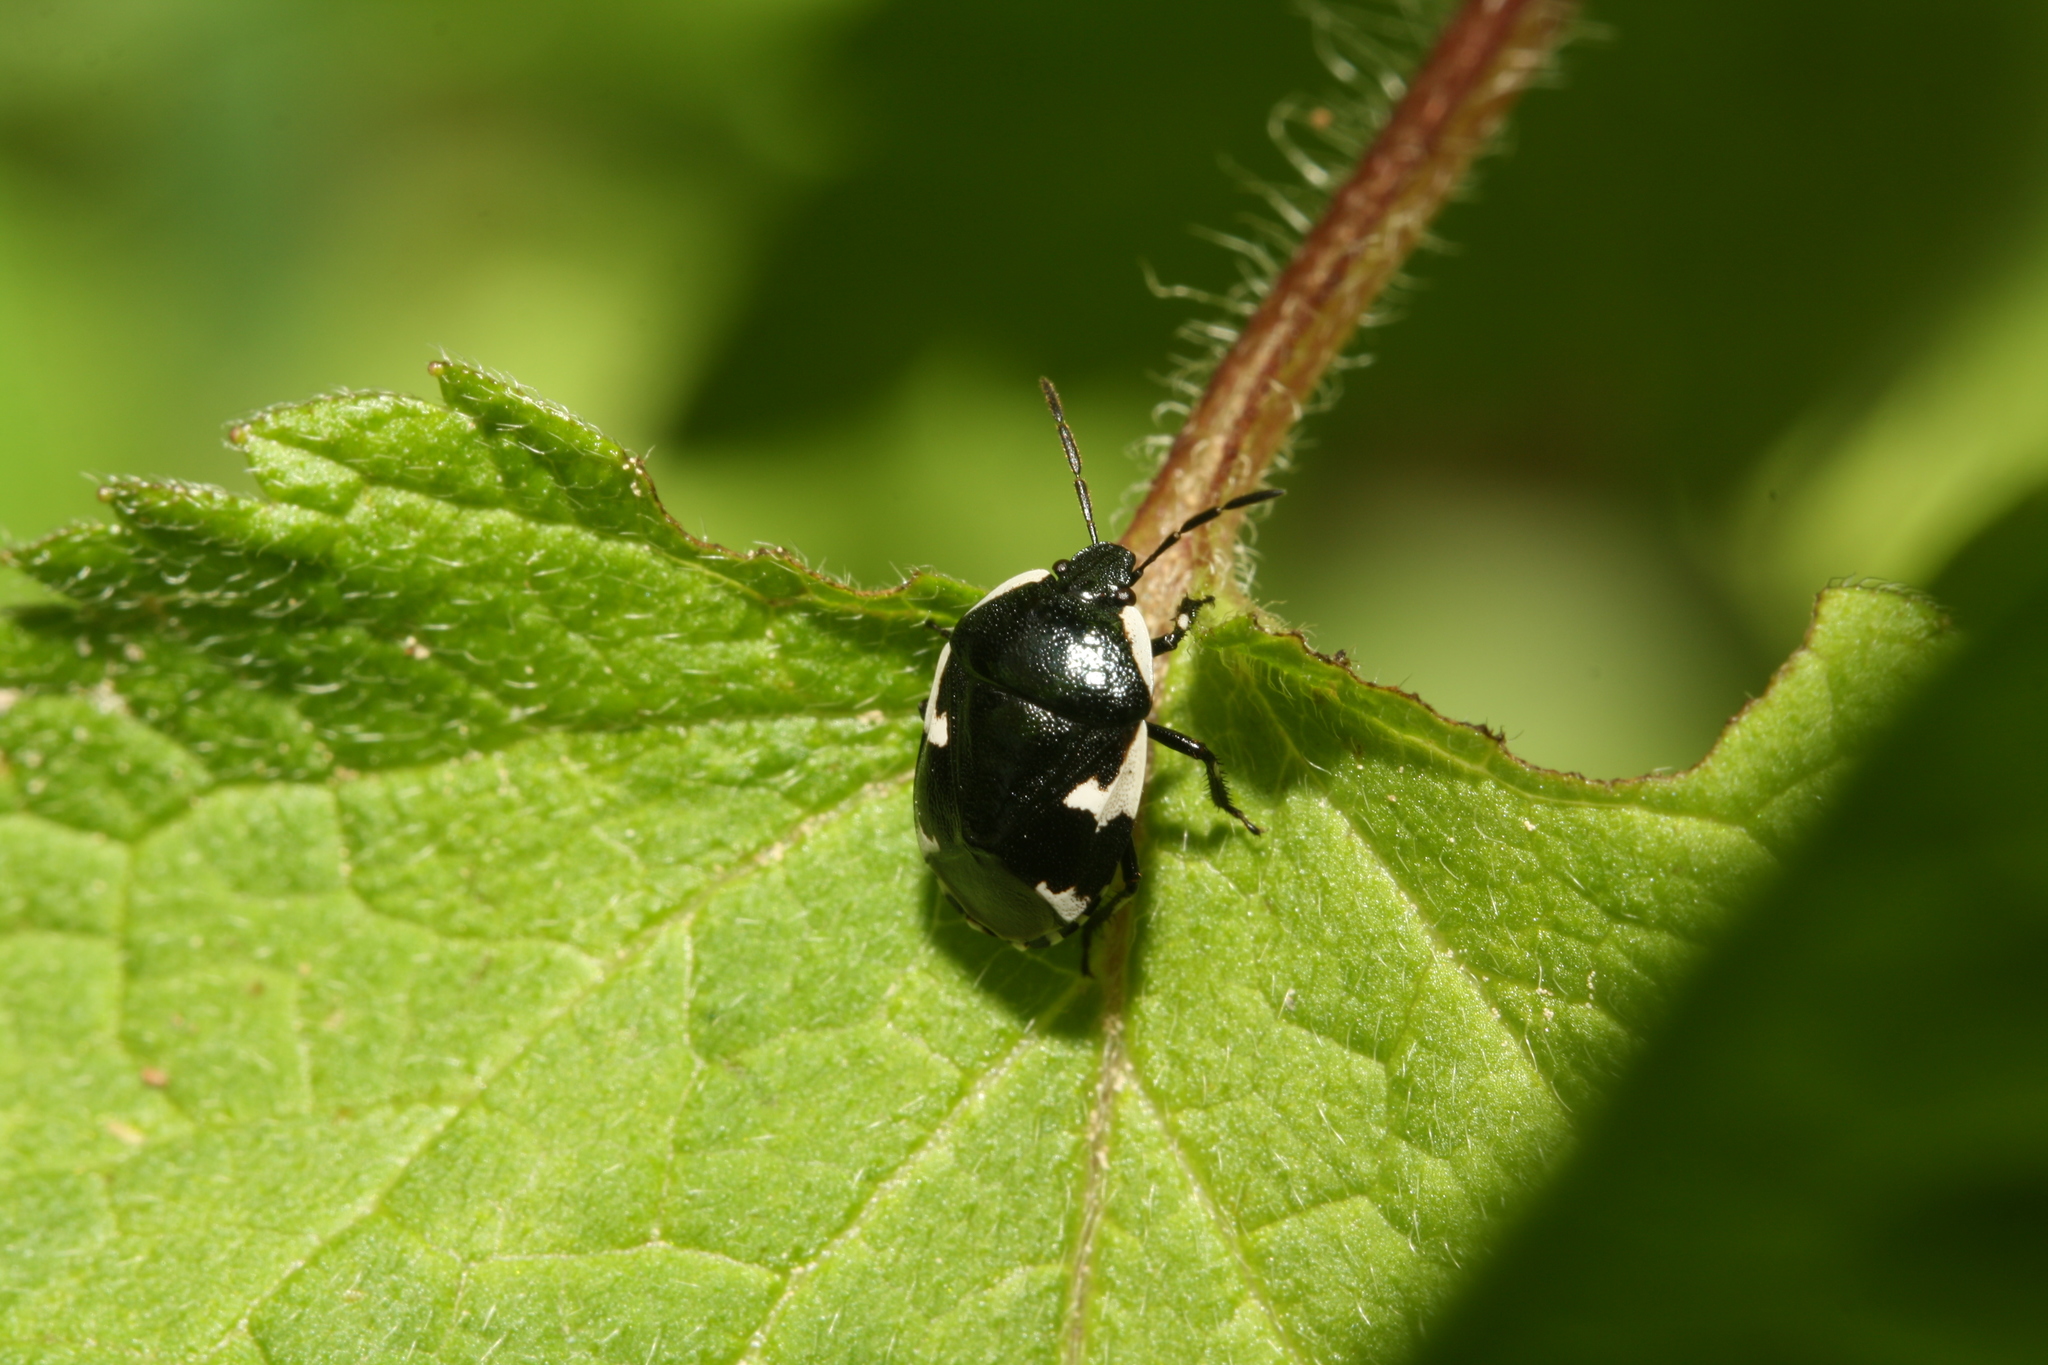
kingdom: Animalia
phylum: Arthropoda
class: Insecta
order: Hemiptera
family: Cydnidae
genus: Tritomegas
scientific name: Tritomegas sexmaculatus
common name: Rambur's pied shieldbug
